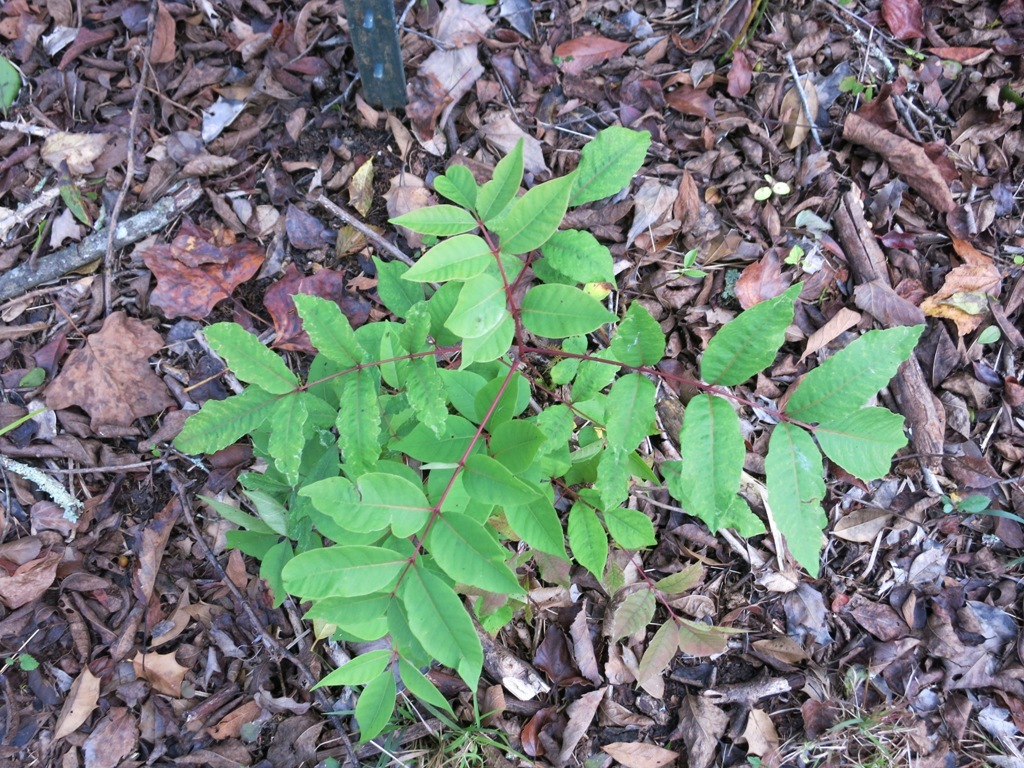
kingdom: Plantae
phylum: Tracheophyta
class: Magnoliopsida
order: Sapindales
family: Anacardiaceae
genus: Toxicodendron
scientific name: Toxicodendron vernix
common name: Poison sumac
